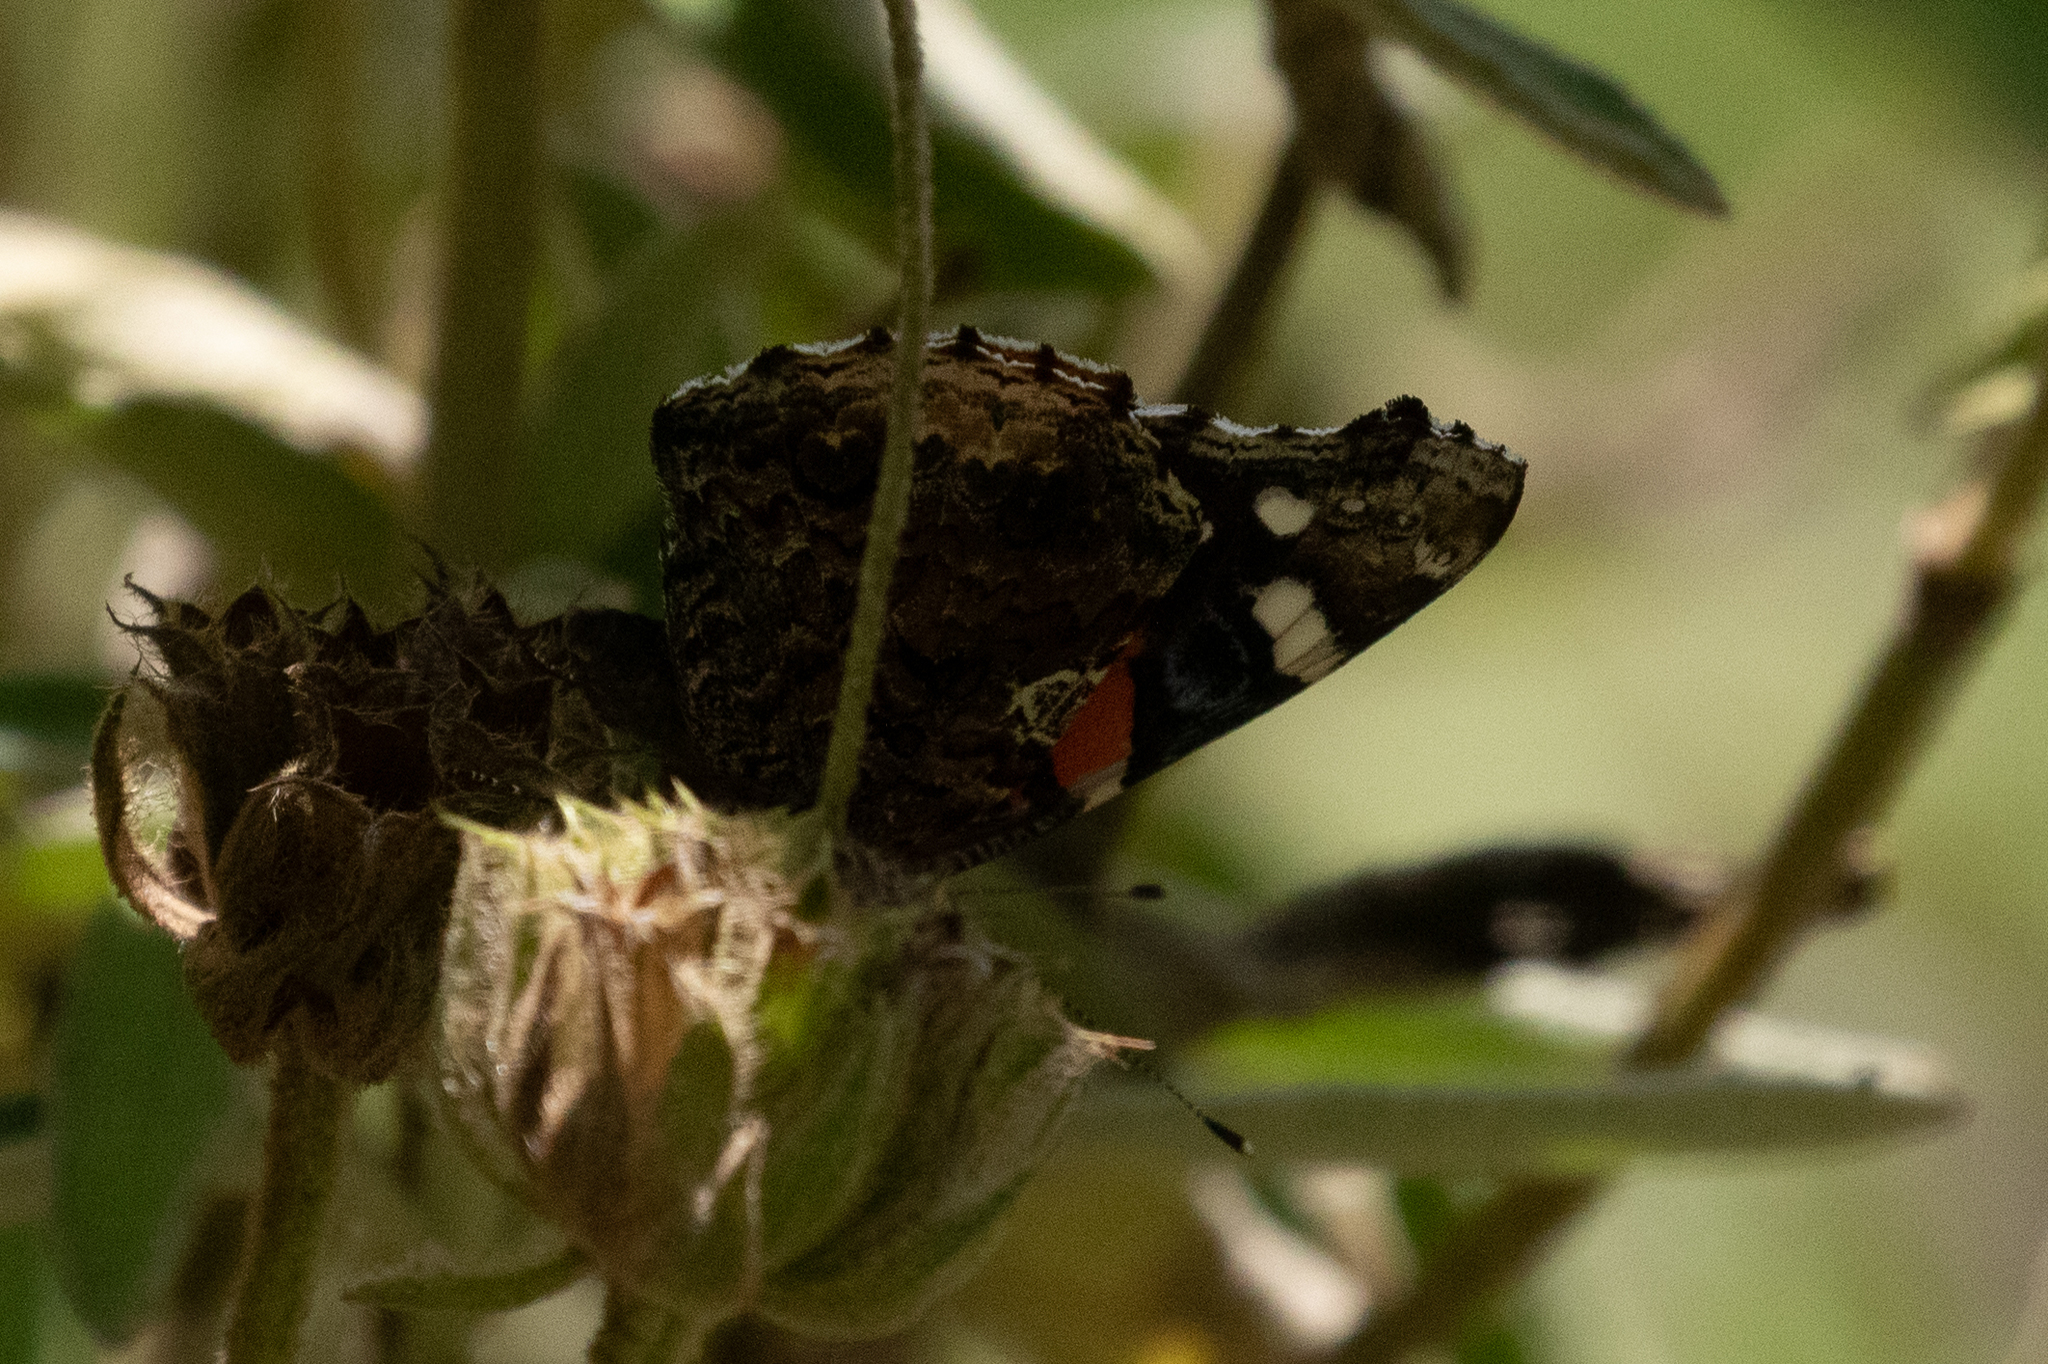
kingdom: Animalia
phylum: Arthropoda
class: Insecta
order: Lepidoptera
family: Nymphalidae
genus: Vanessa
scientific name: Vanessa atalanta
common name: Red admiral
